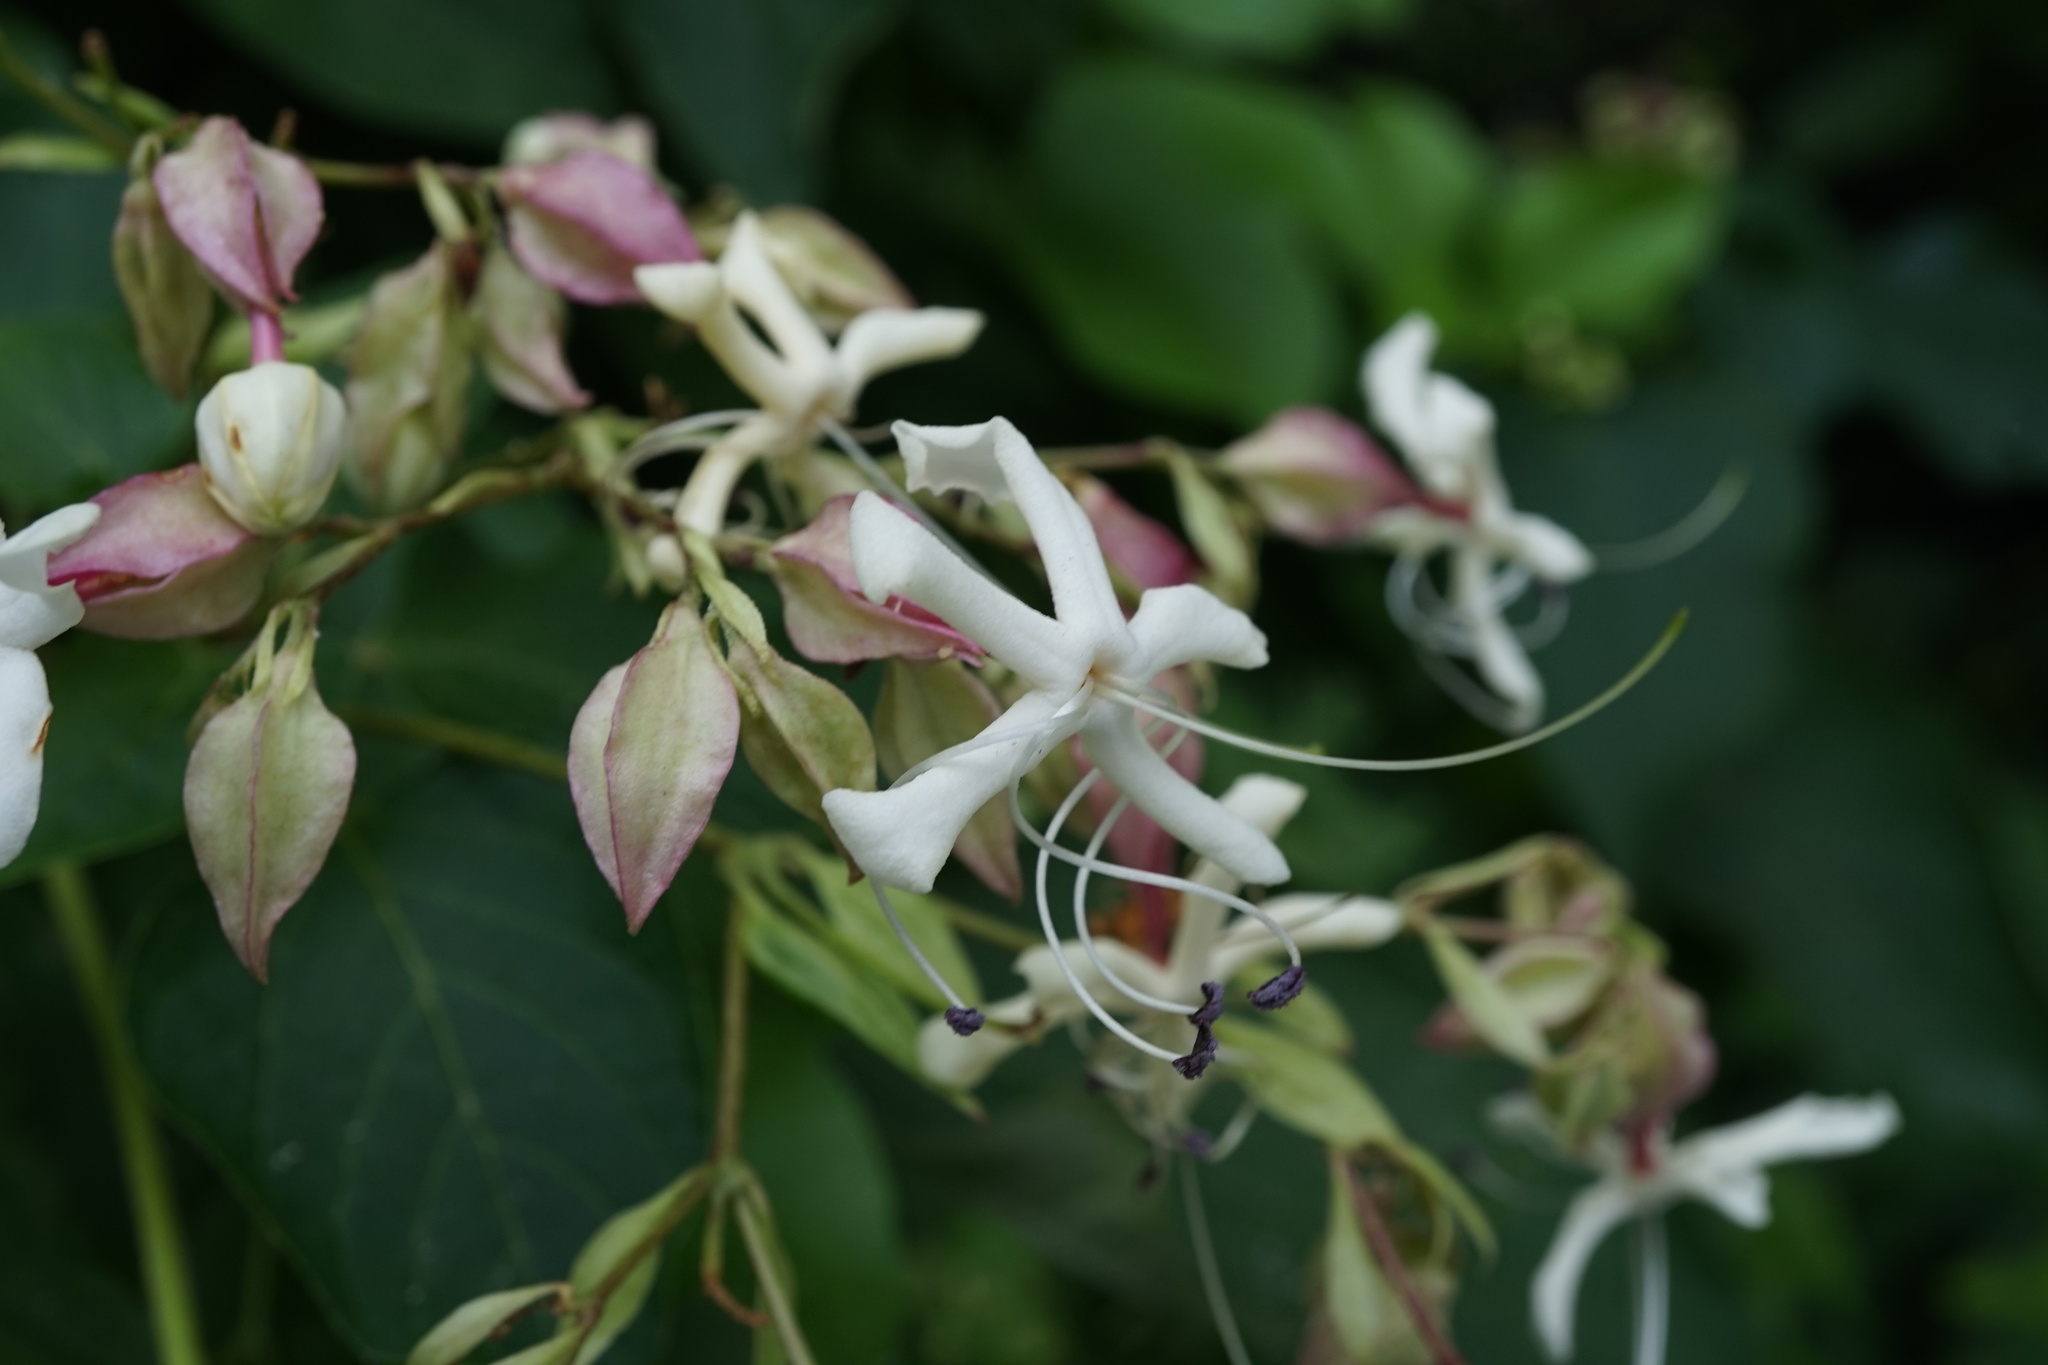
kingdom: Plantae
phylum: Tracheophyta
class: Magnoliopsida
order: Lamiales
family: Lamiaceae
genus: Clerodendrum
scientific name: Clerodendrum trichotomum
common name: Harlequin glorybower
